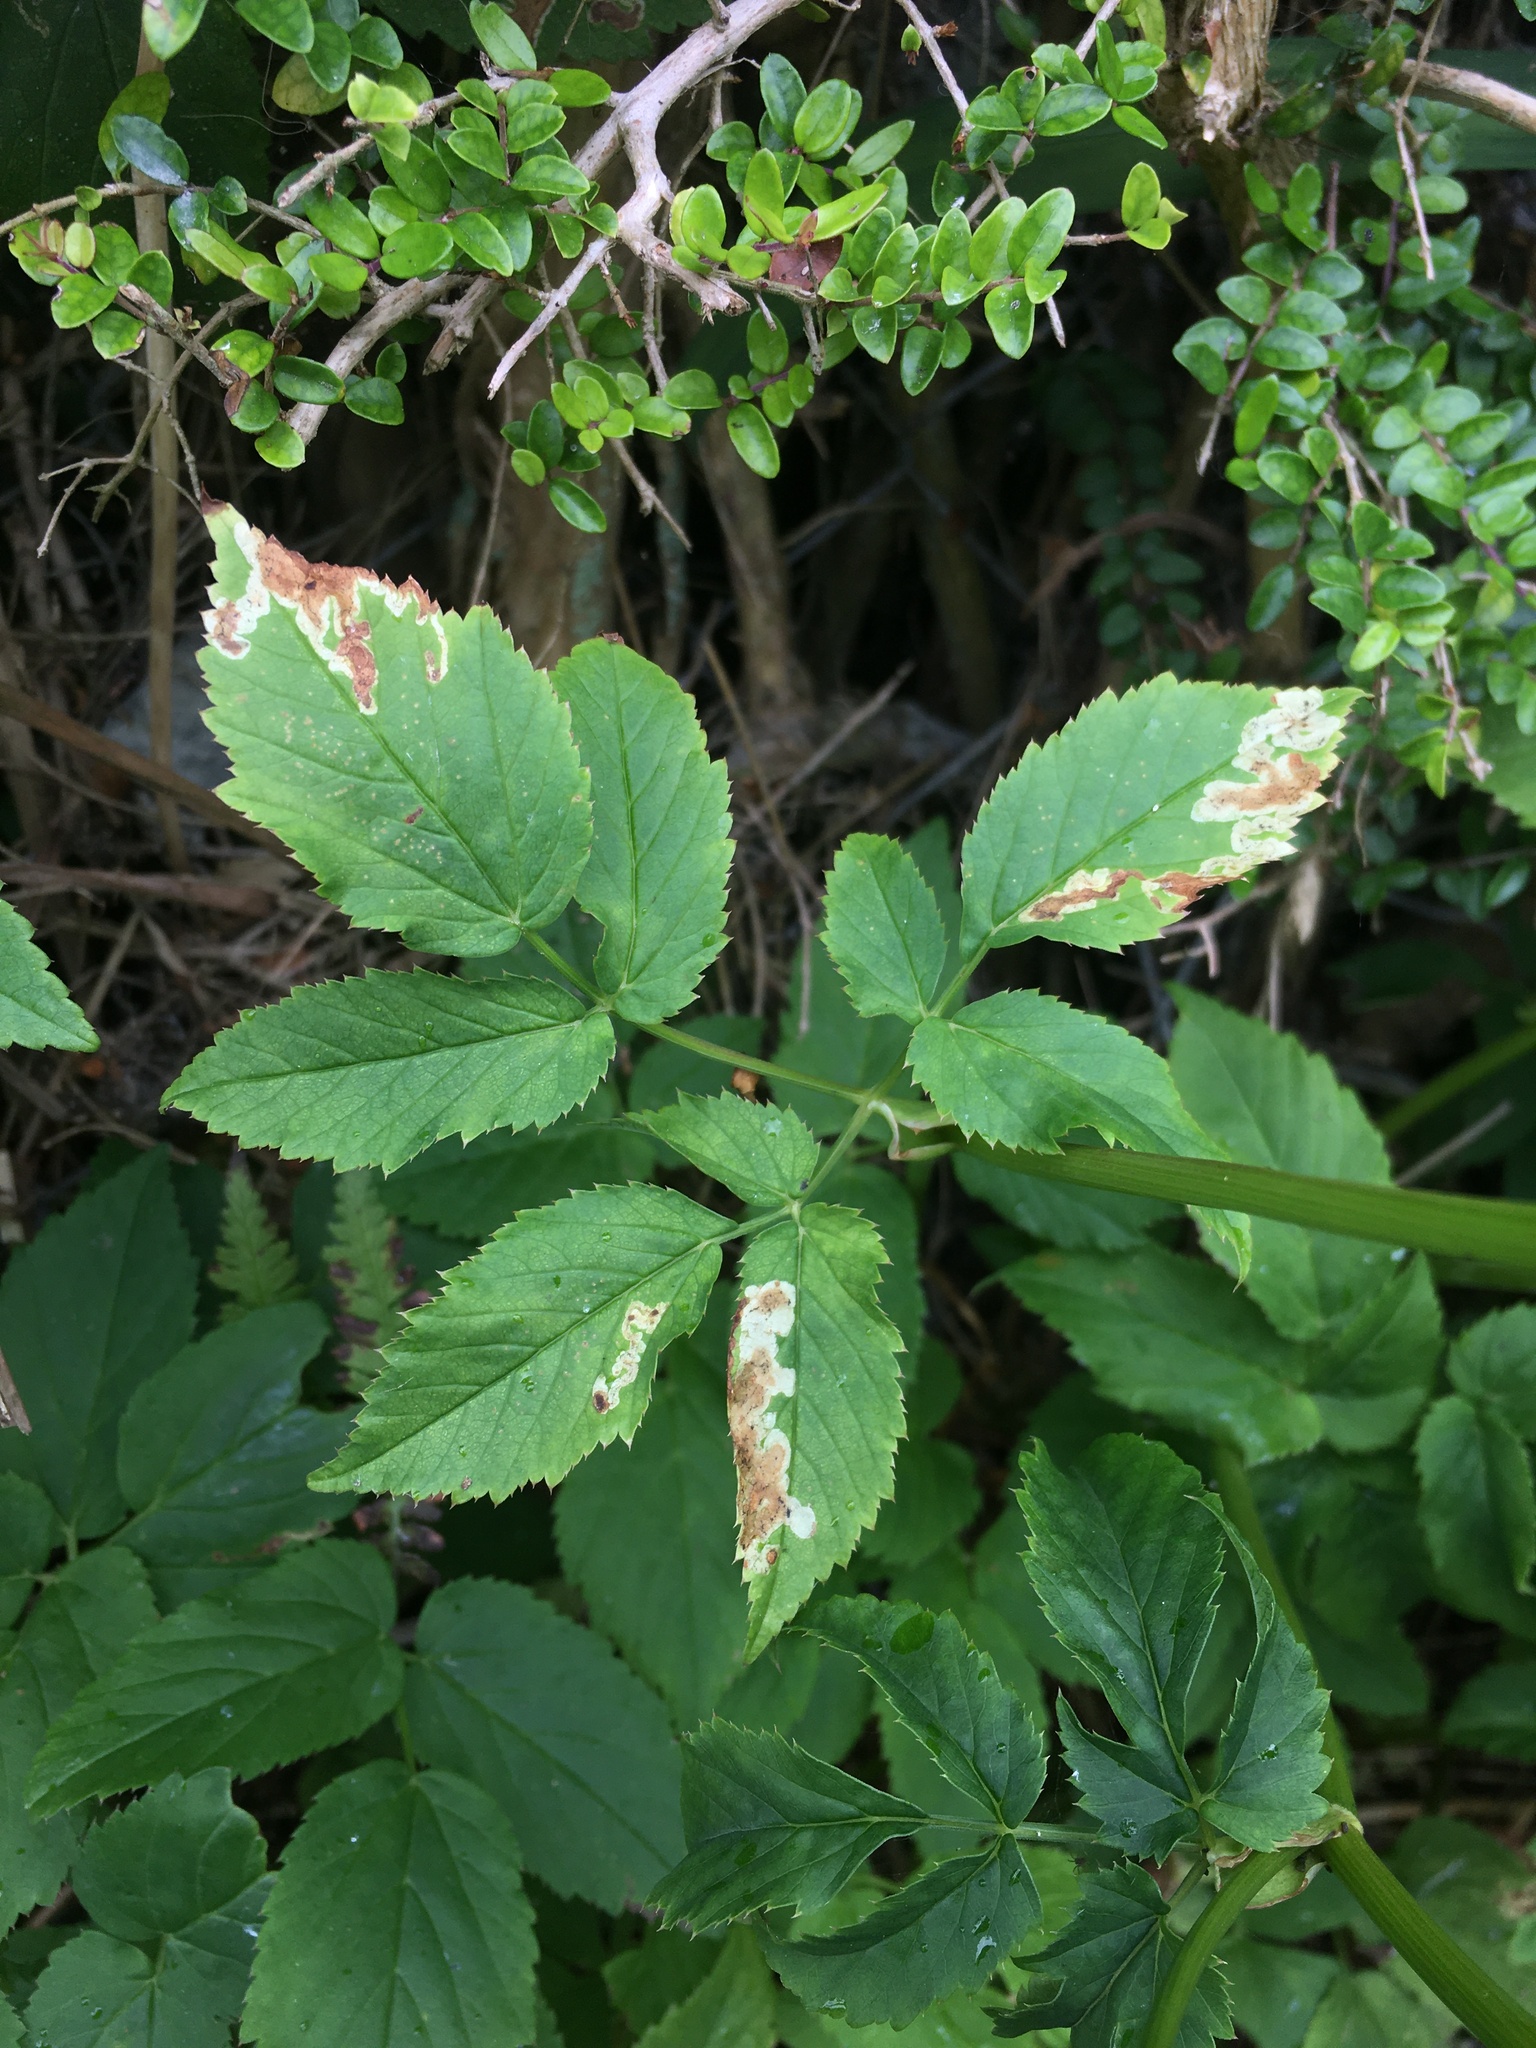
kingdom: Plantae
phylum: Tracheophyta
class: Magnoliopsida
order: Apiales
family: Apiaceae
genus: Aegopodium
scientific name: Aegopodium podagraria
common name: Ground-elder
